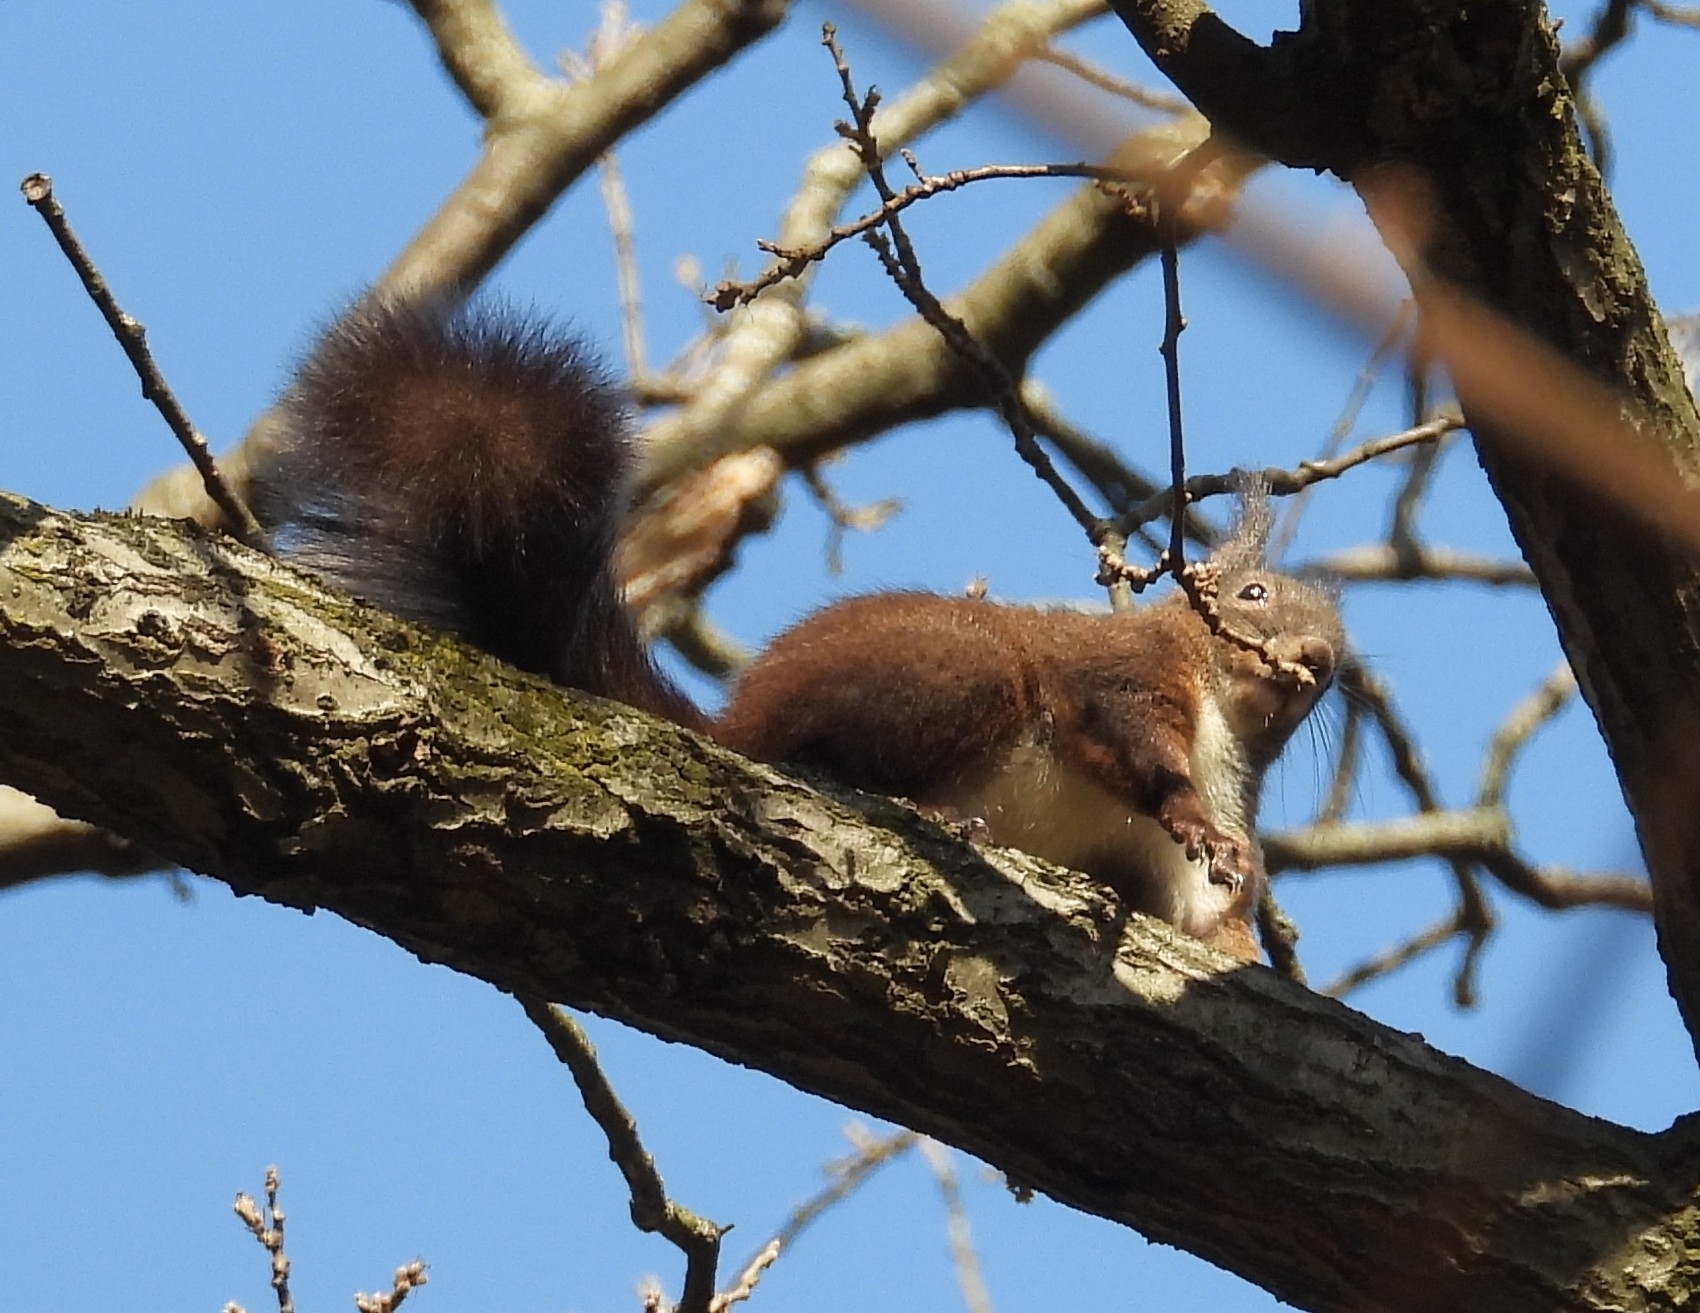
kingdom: Animalia
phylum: Chordata
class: Mammalia
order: Rodentia
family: Sciuridae
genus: Sciurus
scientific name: Sciurus vulgaris
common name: Eurasian red squirrel
